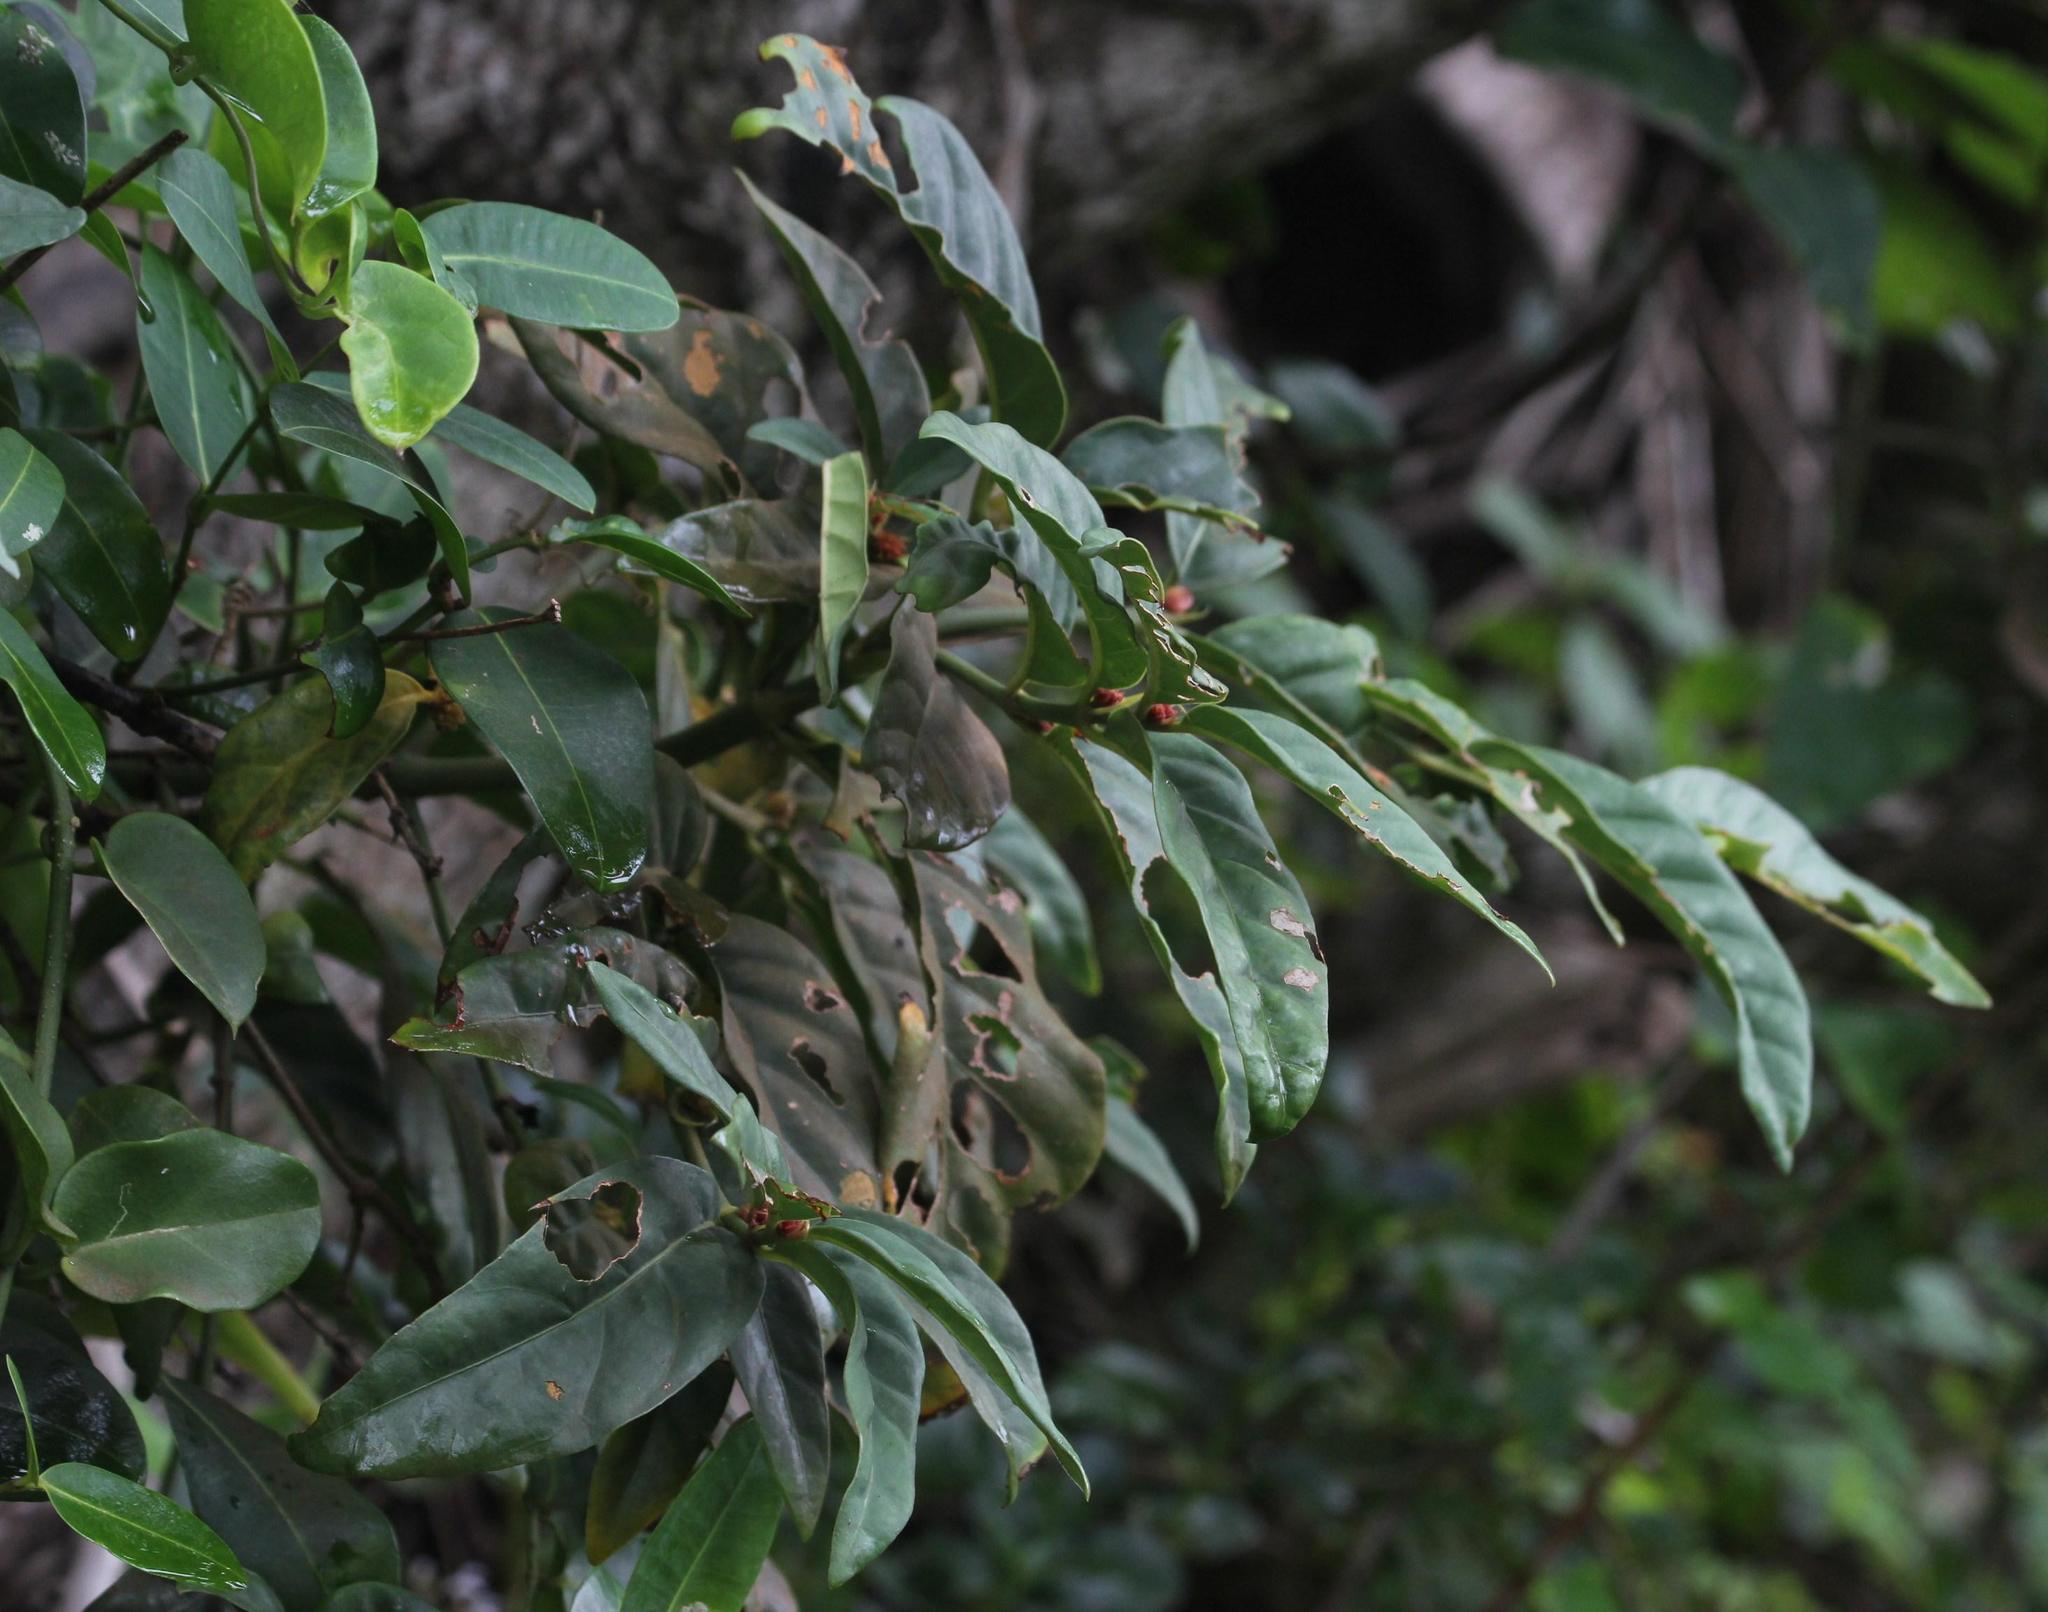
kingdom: Plantae
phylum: Tracheophyta
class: Magnoliopsida
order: Gentianales
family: Rubiaceae
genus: Mitriostigma
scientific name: Mitriostigma axillare
